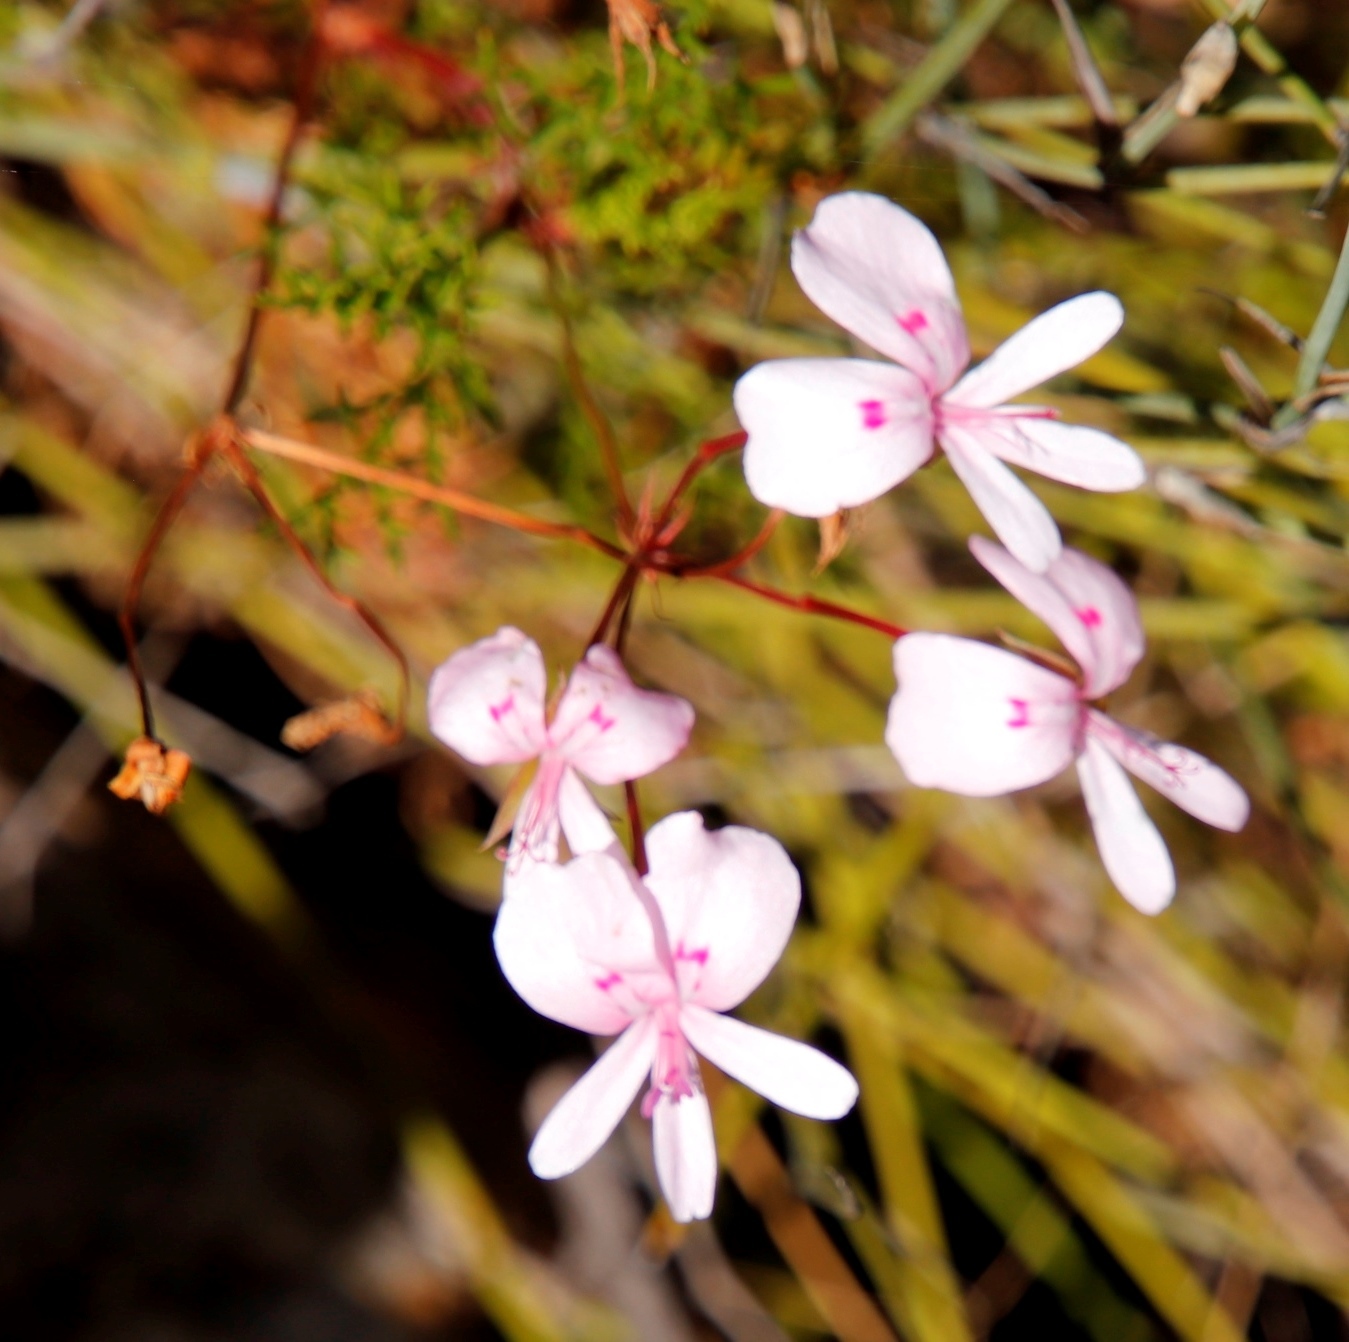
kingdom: Plantae
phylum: Tracheophyta
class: Magnoliopsida
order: Geraniales
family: Geraniaceae
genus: Pelargonium
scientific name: Pelargonium artemisiifolium
